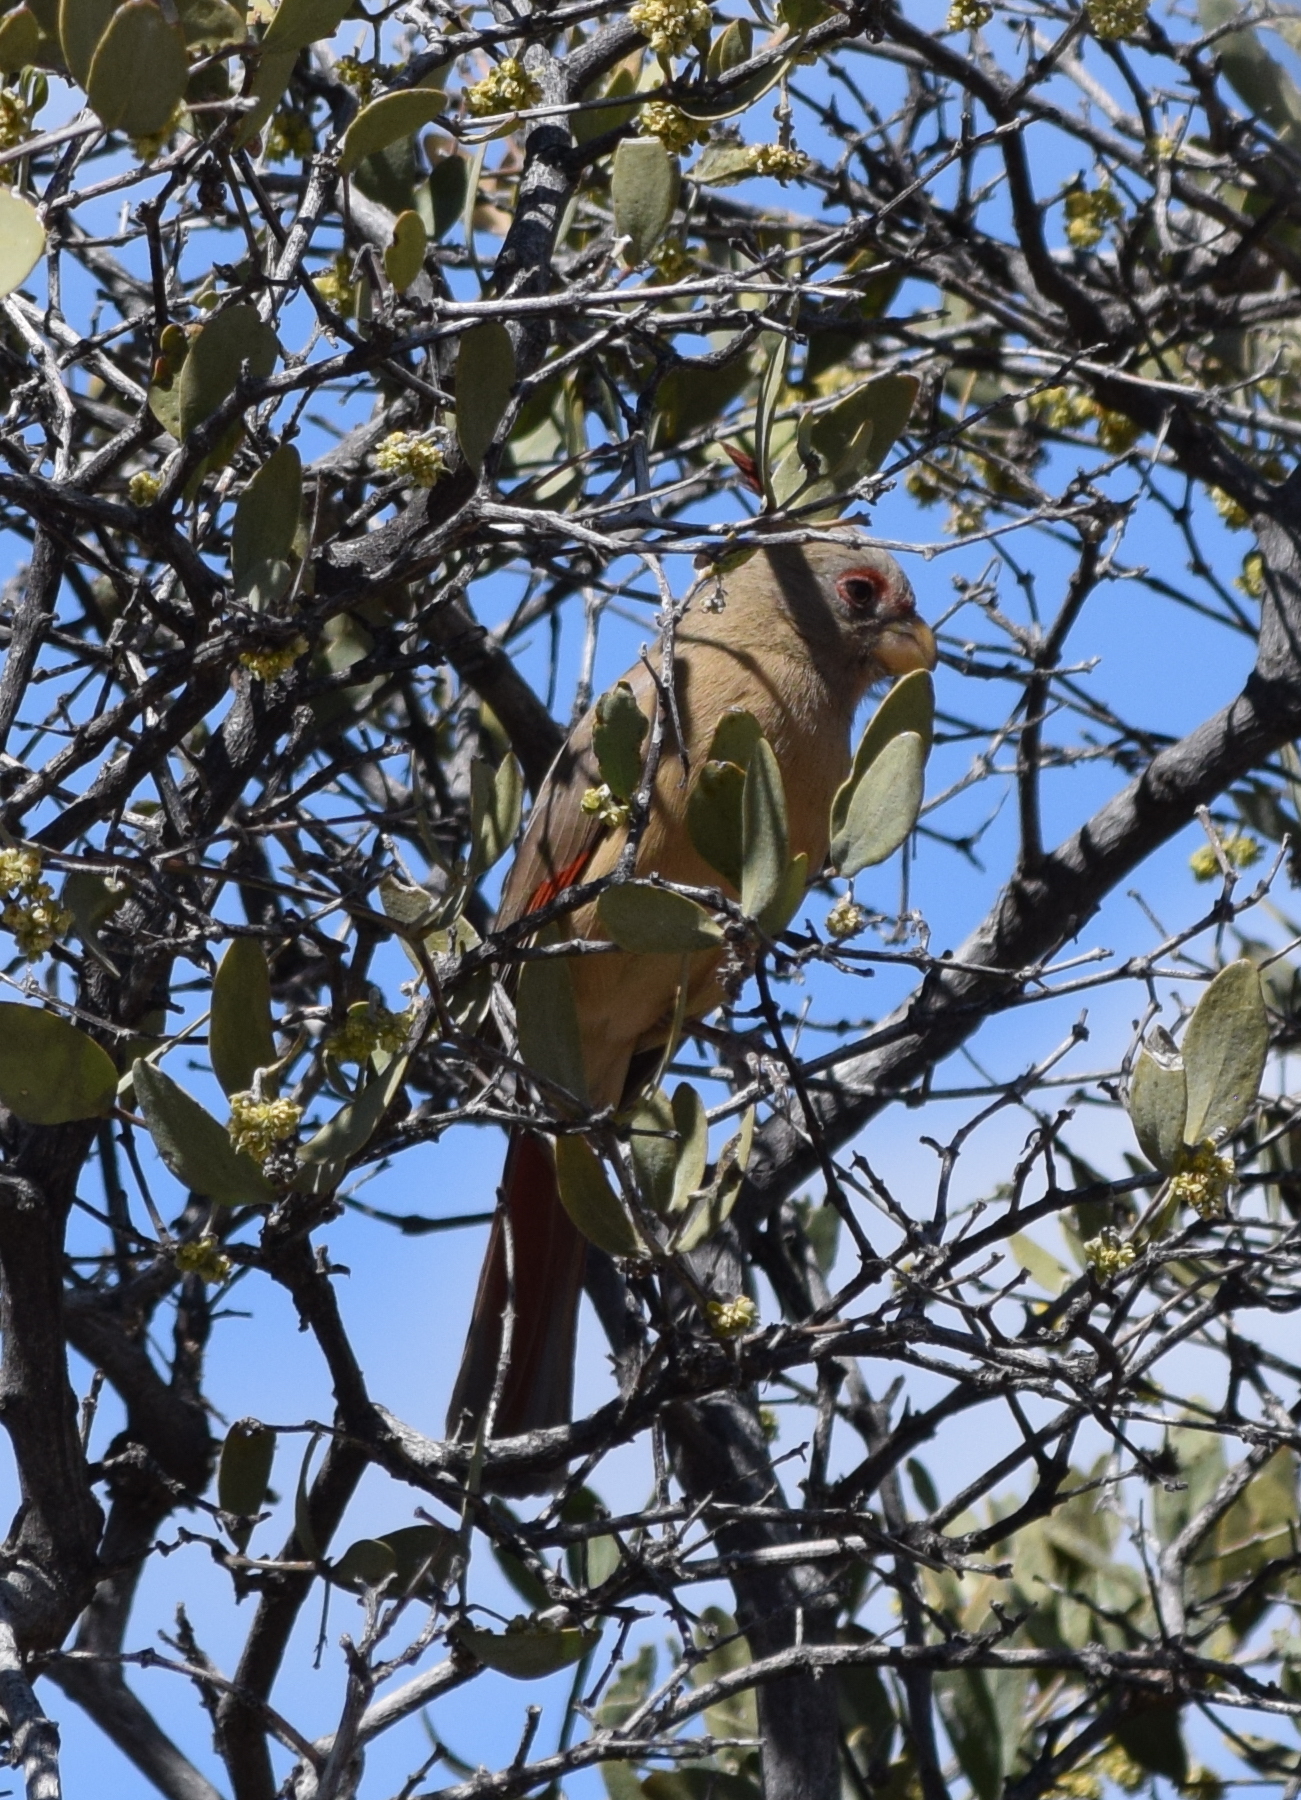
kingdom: Animalia
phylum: Chordata
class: Aves
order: Passeriformes
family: Cardinalidae
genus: Cardinalis
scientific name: Cardinalis sinuatus
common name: Pyrrhuloxia
